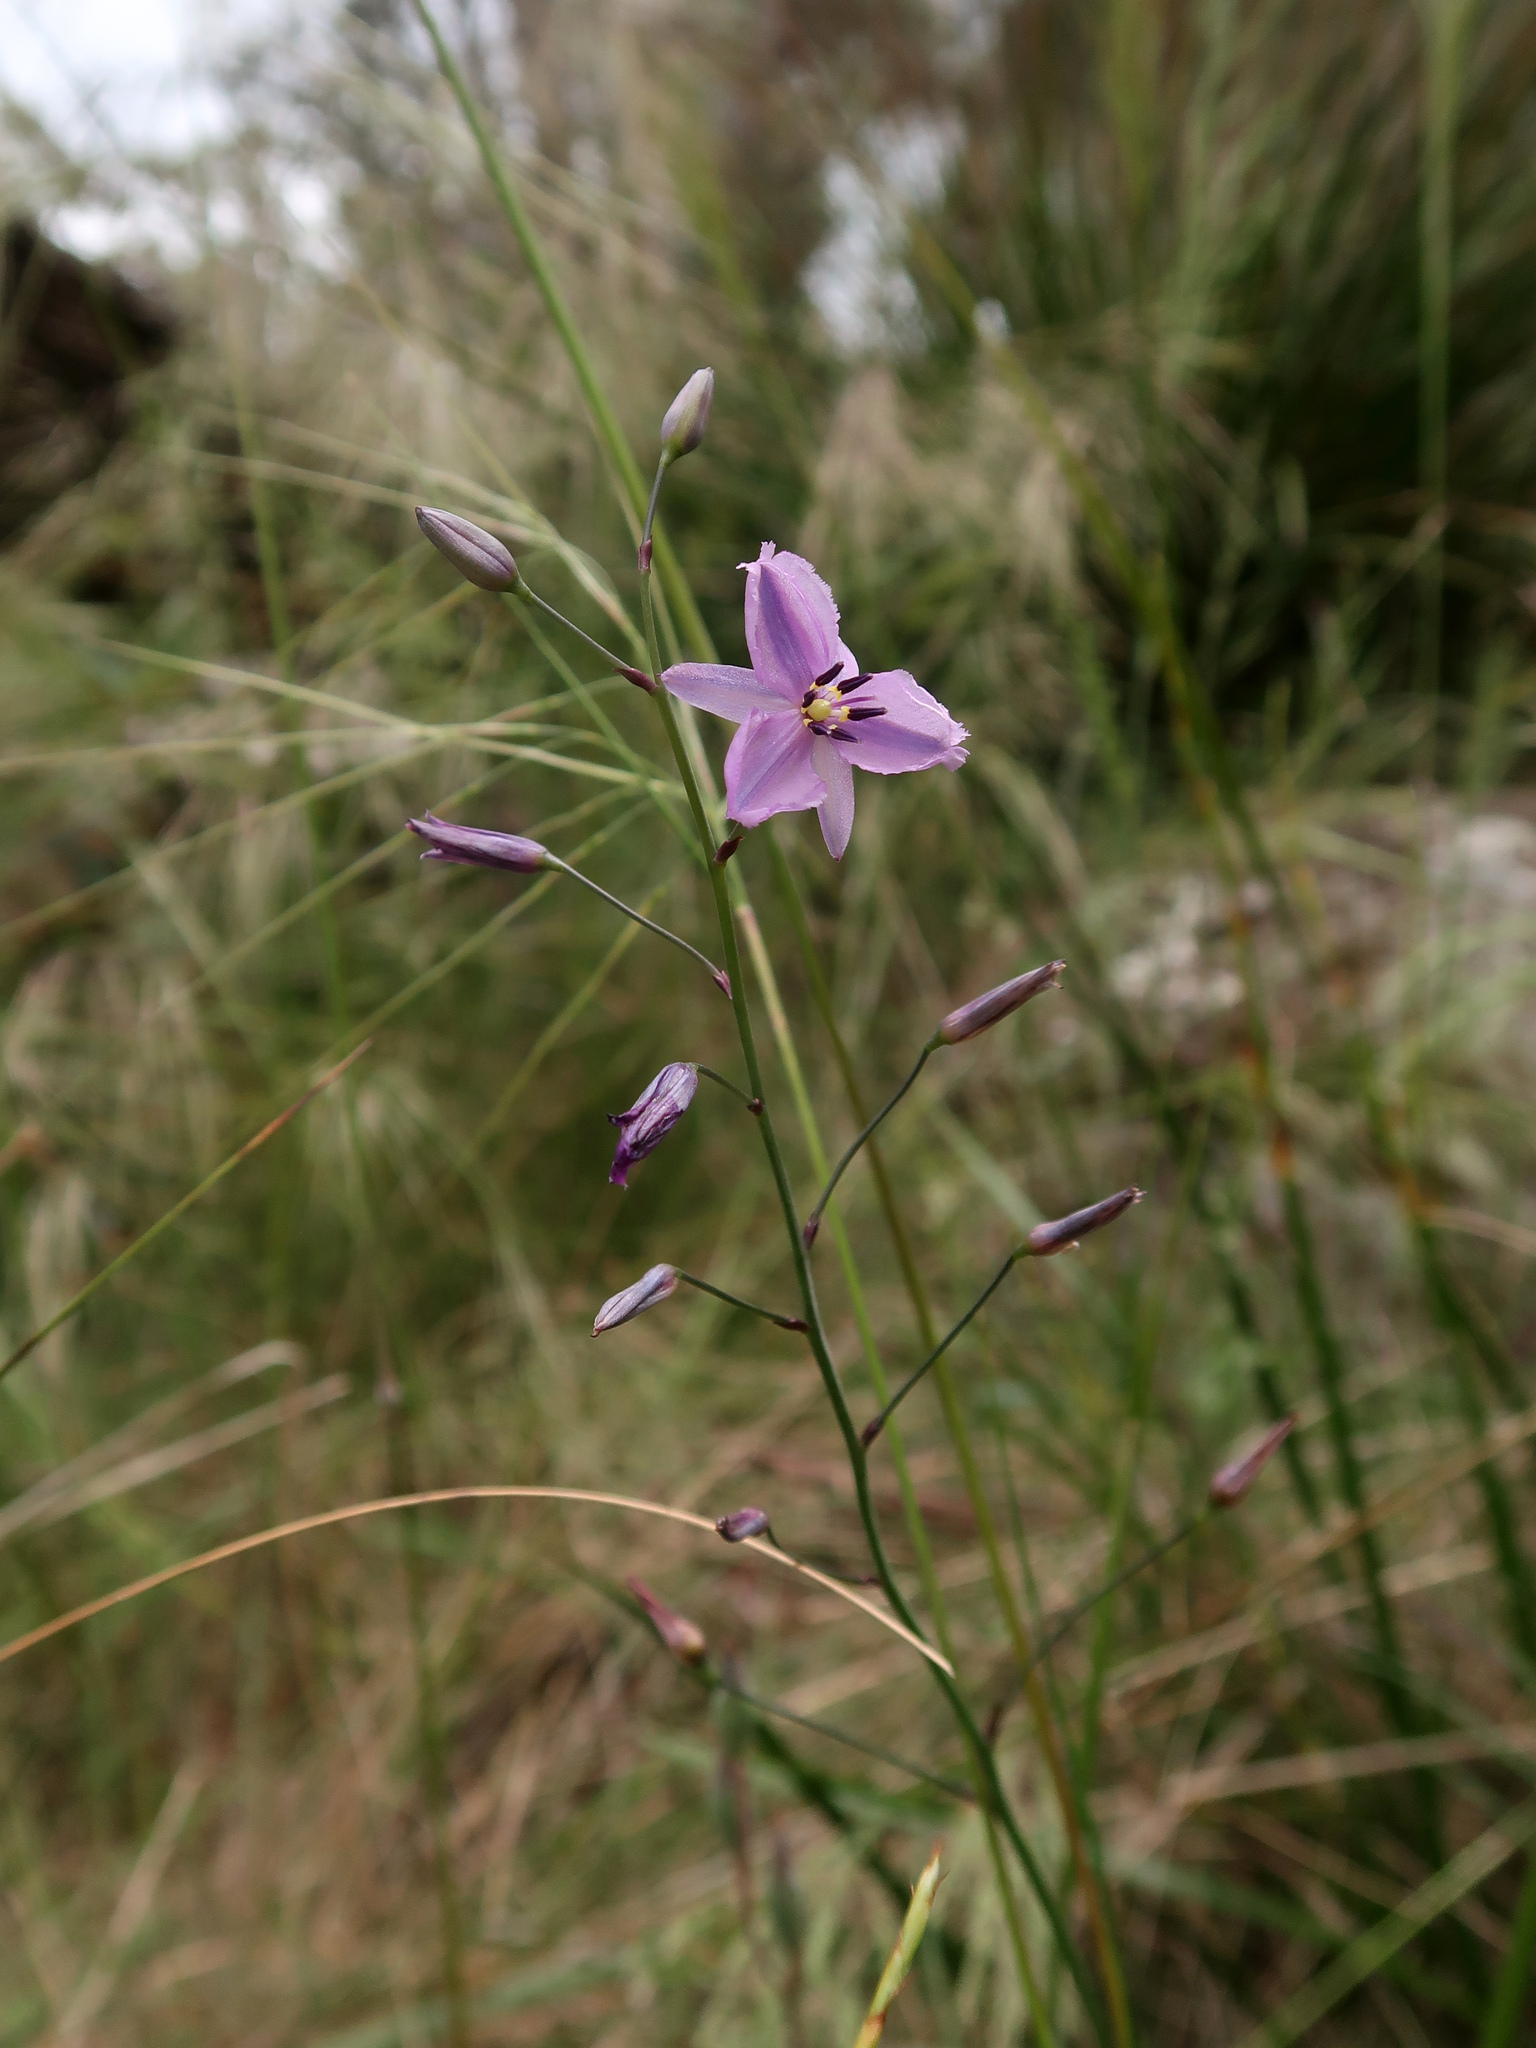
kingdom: Plantae
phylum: Tracheophyta
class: Liliopsida
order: Asparagales
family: Asparagaceae
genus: Arthropodium
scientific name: Arthropodium strictum
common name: Chocolate-lily
